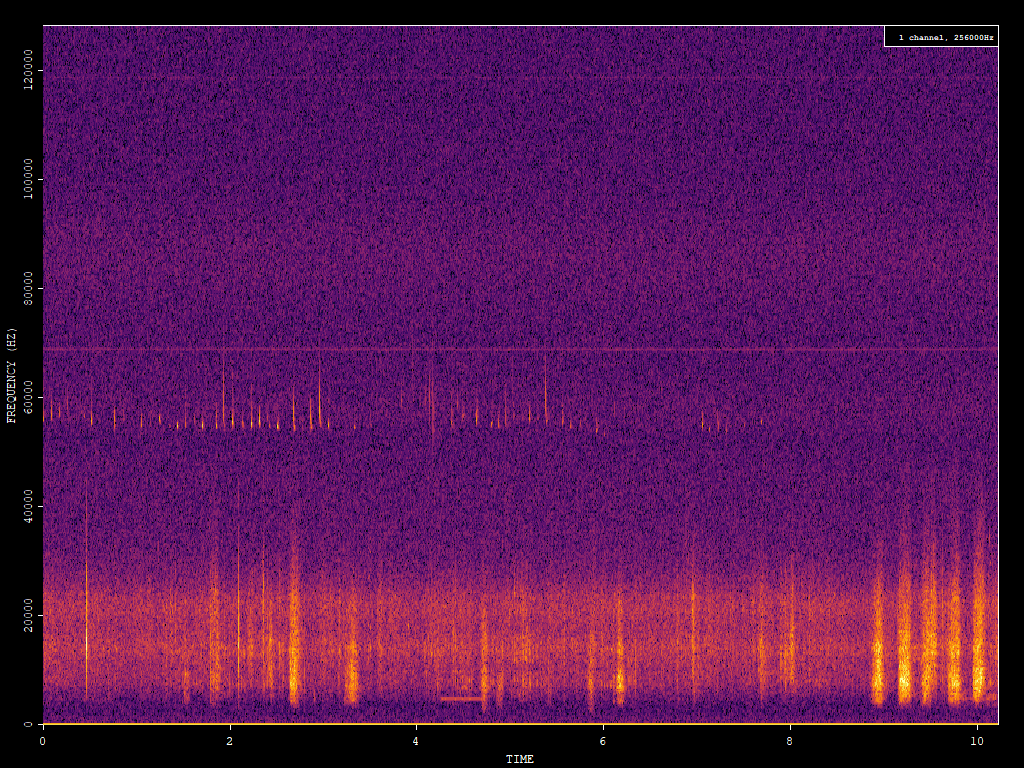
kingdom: Animalia
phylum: Chordata
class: Mammalia
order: Chiroptera
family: Vespertilionidae
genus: Pipistrellus
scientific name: Pipistrellus pygmaeus
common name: Soprano pipistrelle
